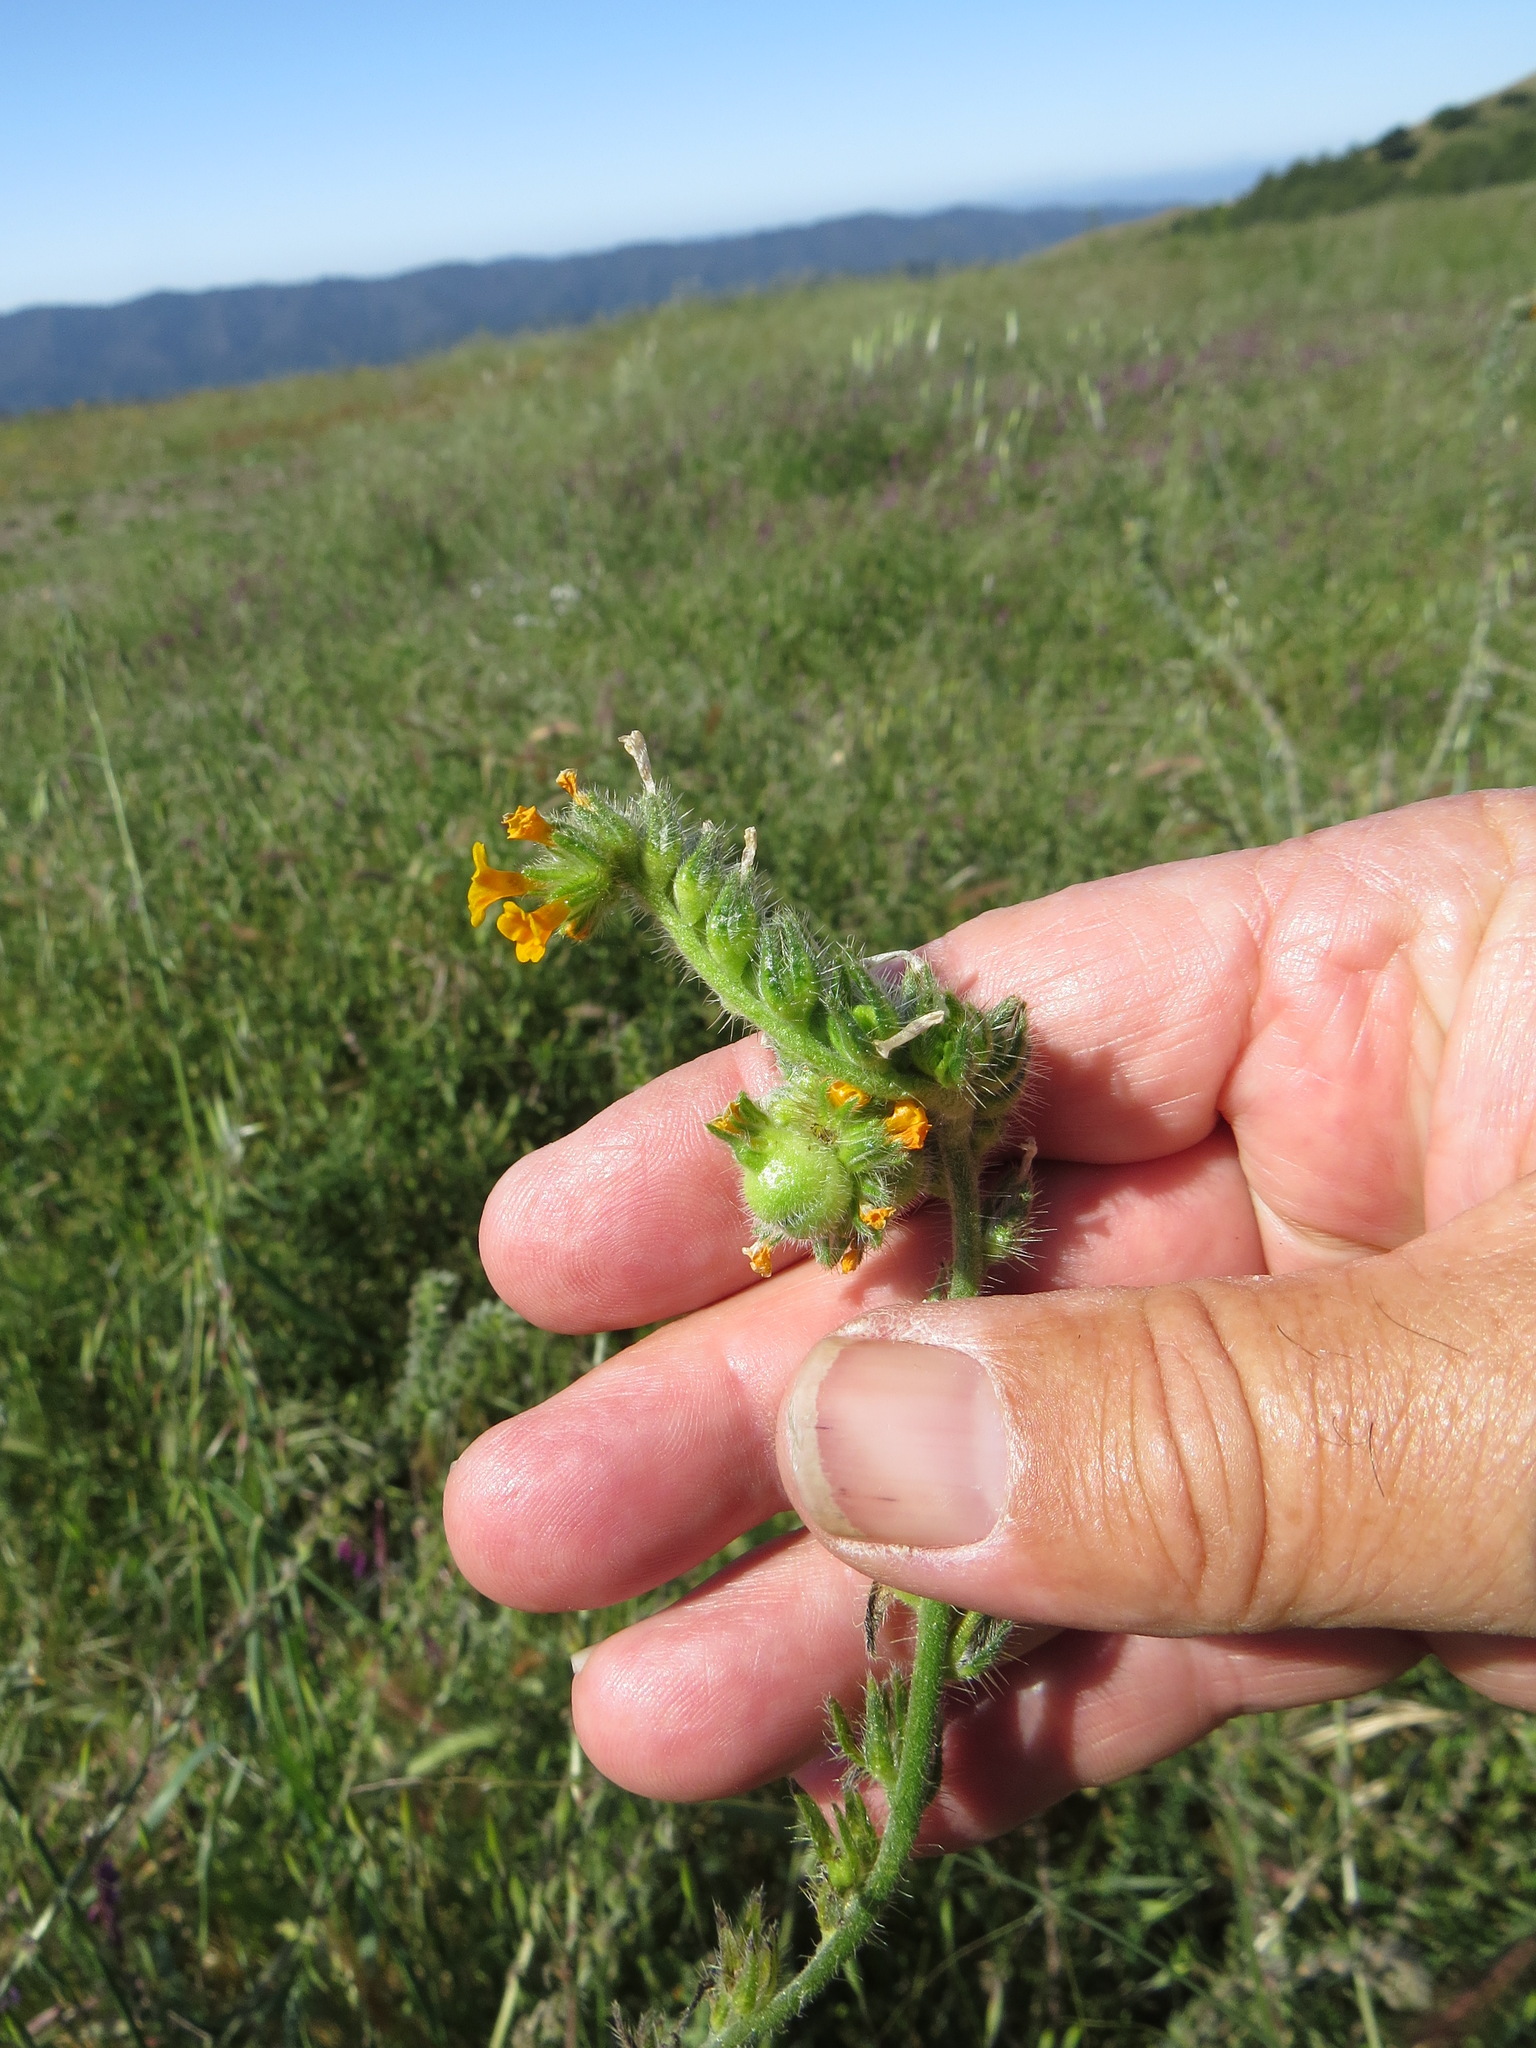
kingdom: Animalia
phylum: Arthropoda
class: Insecta
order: Diptera
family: Cecidomyiidae
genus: Schizomyia
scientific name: Schizomyia macrofila
